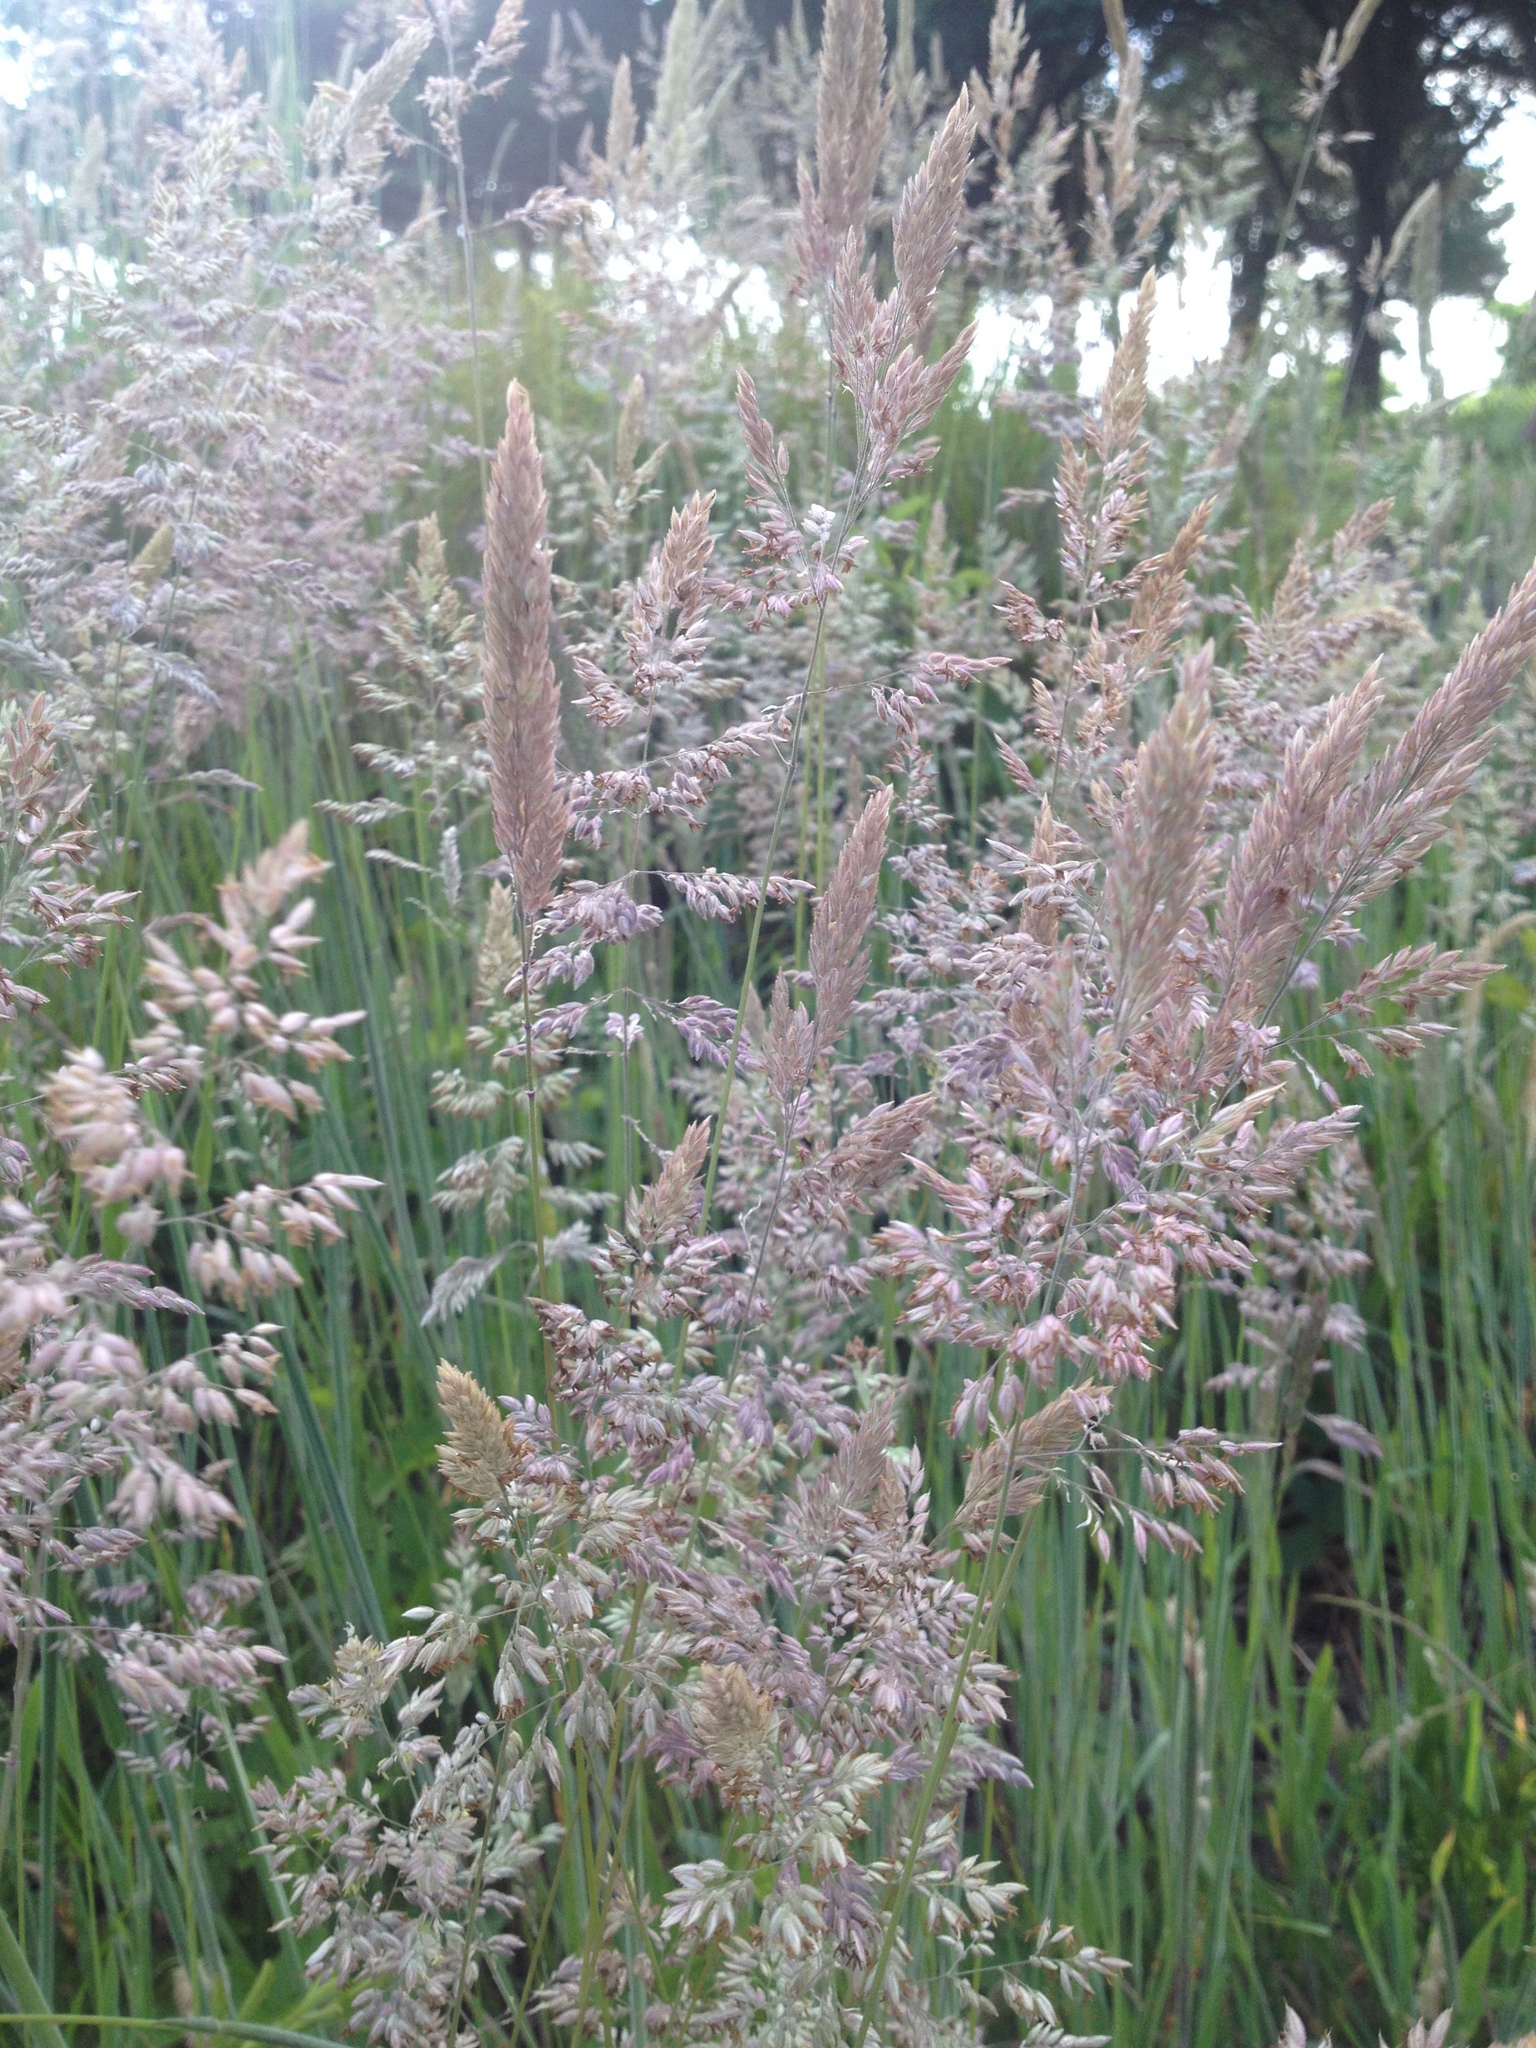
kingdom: Plantae
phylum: Tracheophyta
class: Liliopsida
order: Poales
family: Poaceae
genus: Holcus
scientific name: Holcus lanatus
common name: Yorkshire-fog
